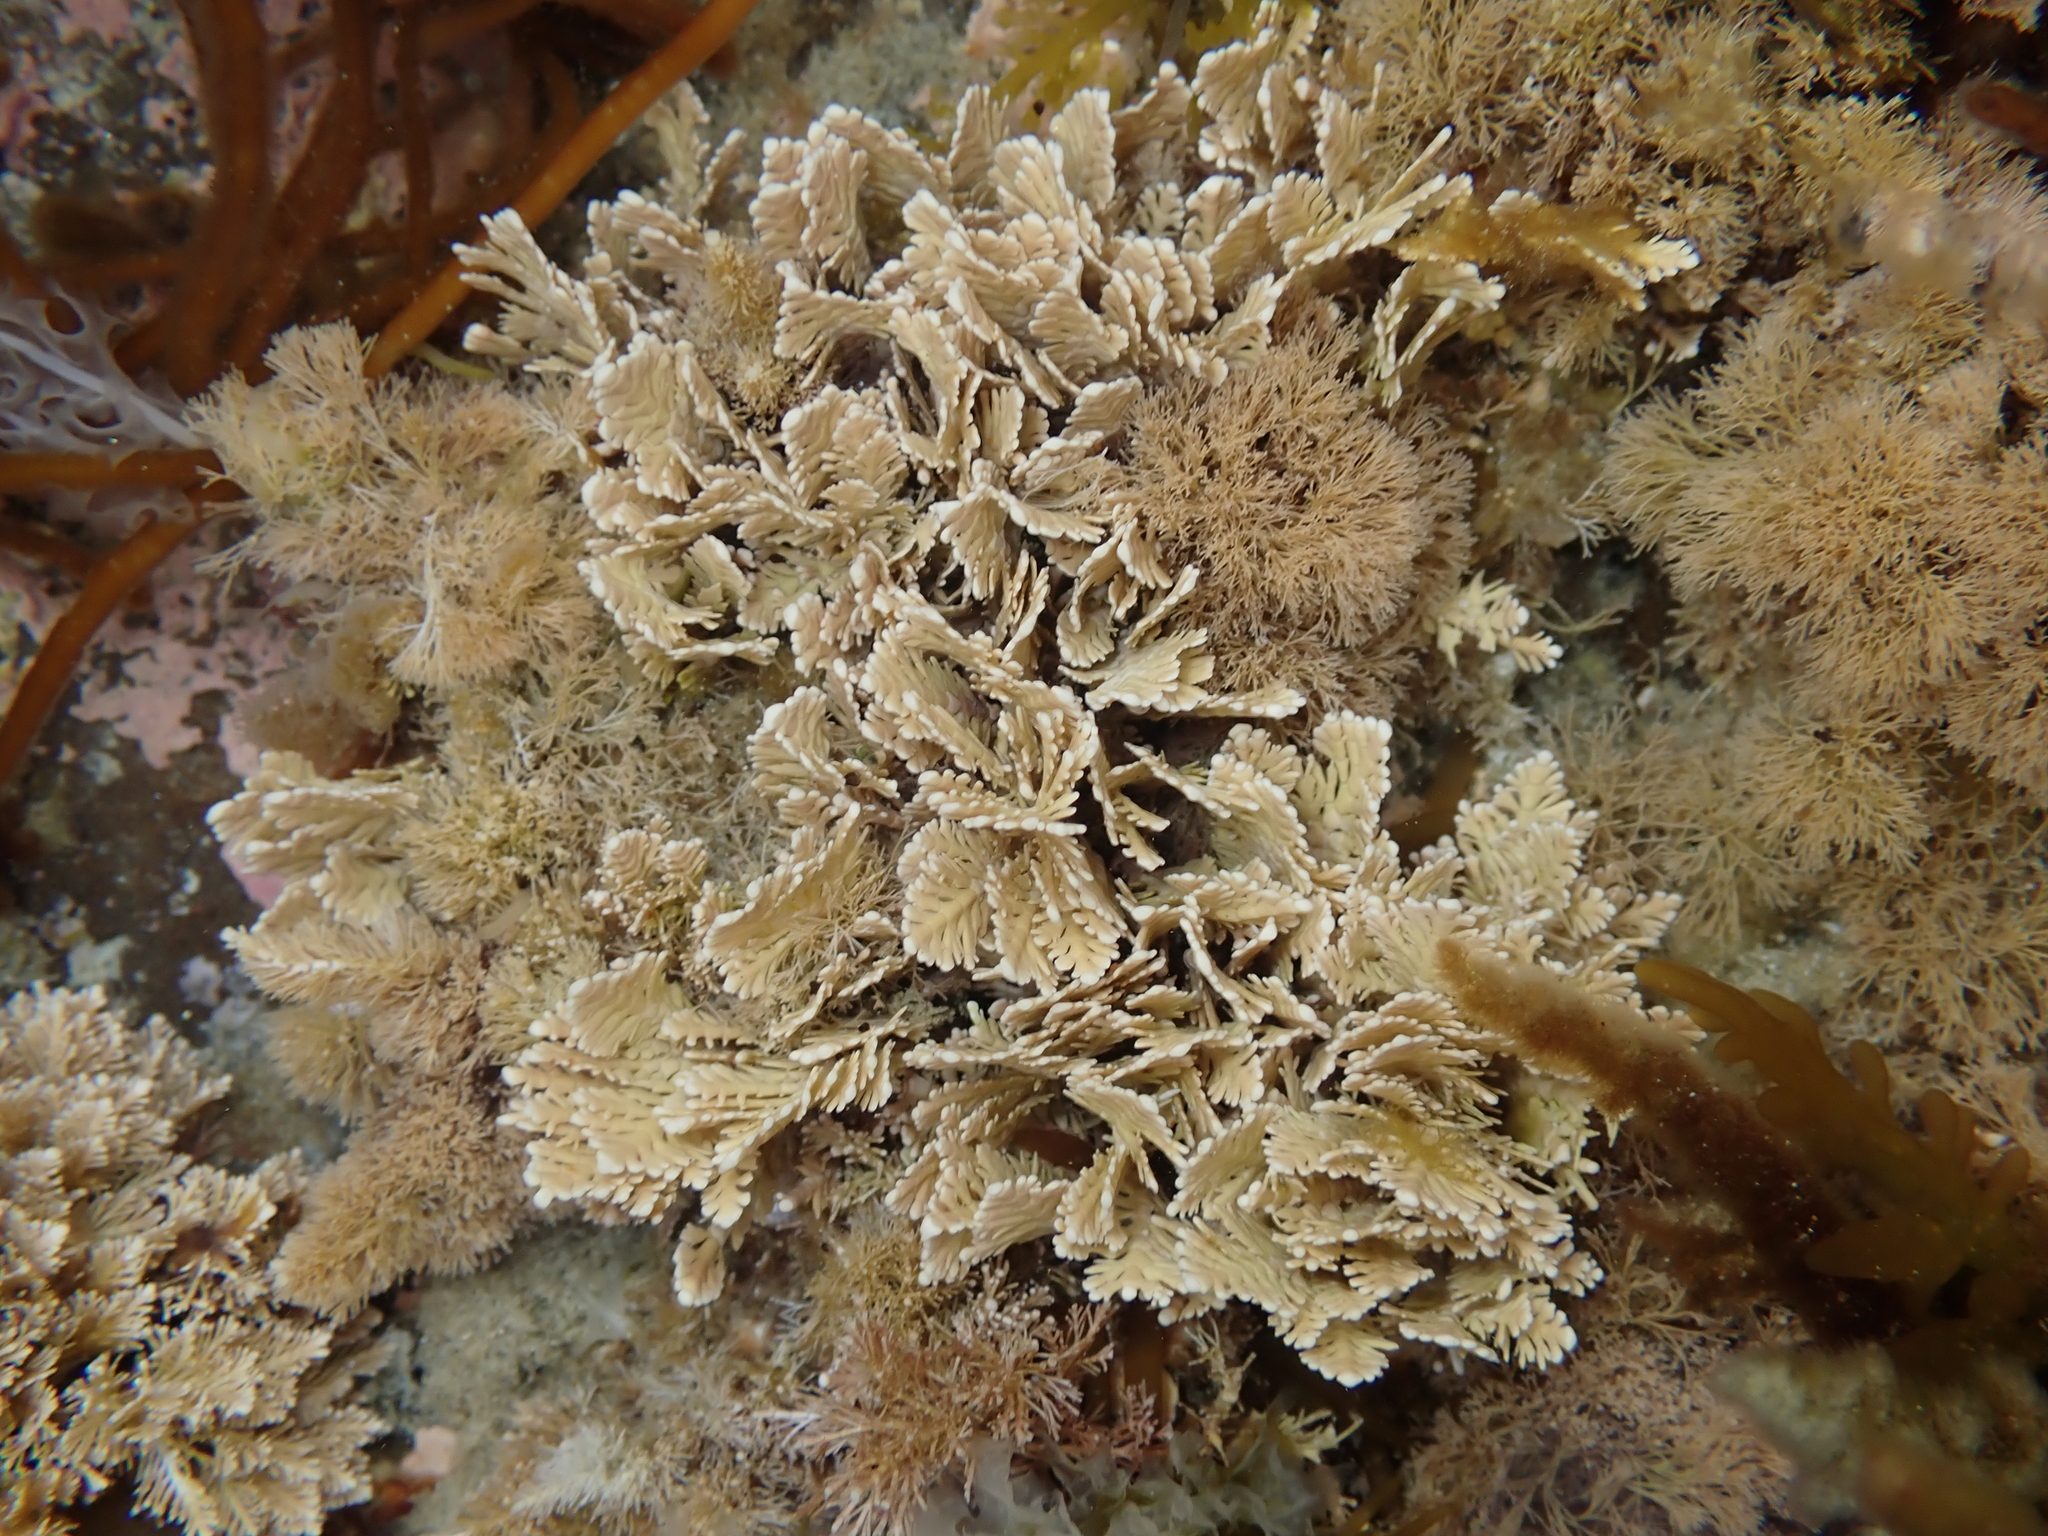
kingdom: Plantae
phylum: Rhodophyta
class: Florideophyceae
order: Corallinales
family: Corallinaceae
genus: Arthrocardia
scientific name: Arthrocardia corymbosa
